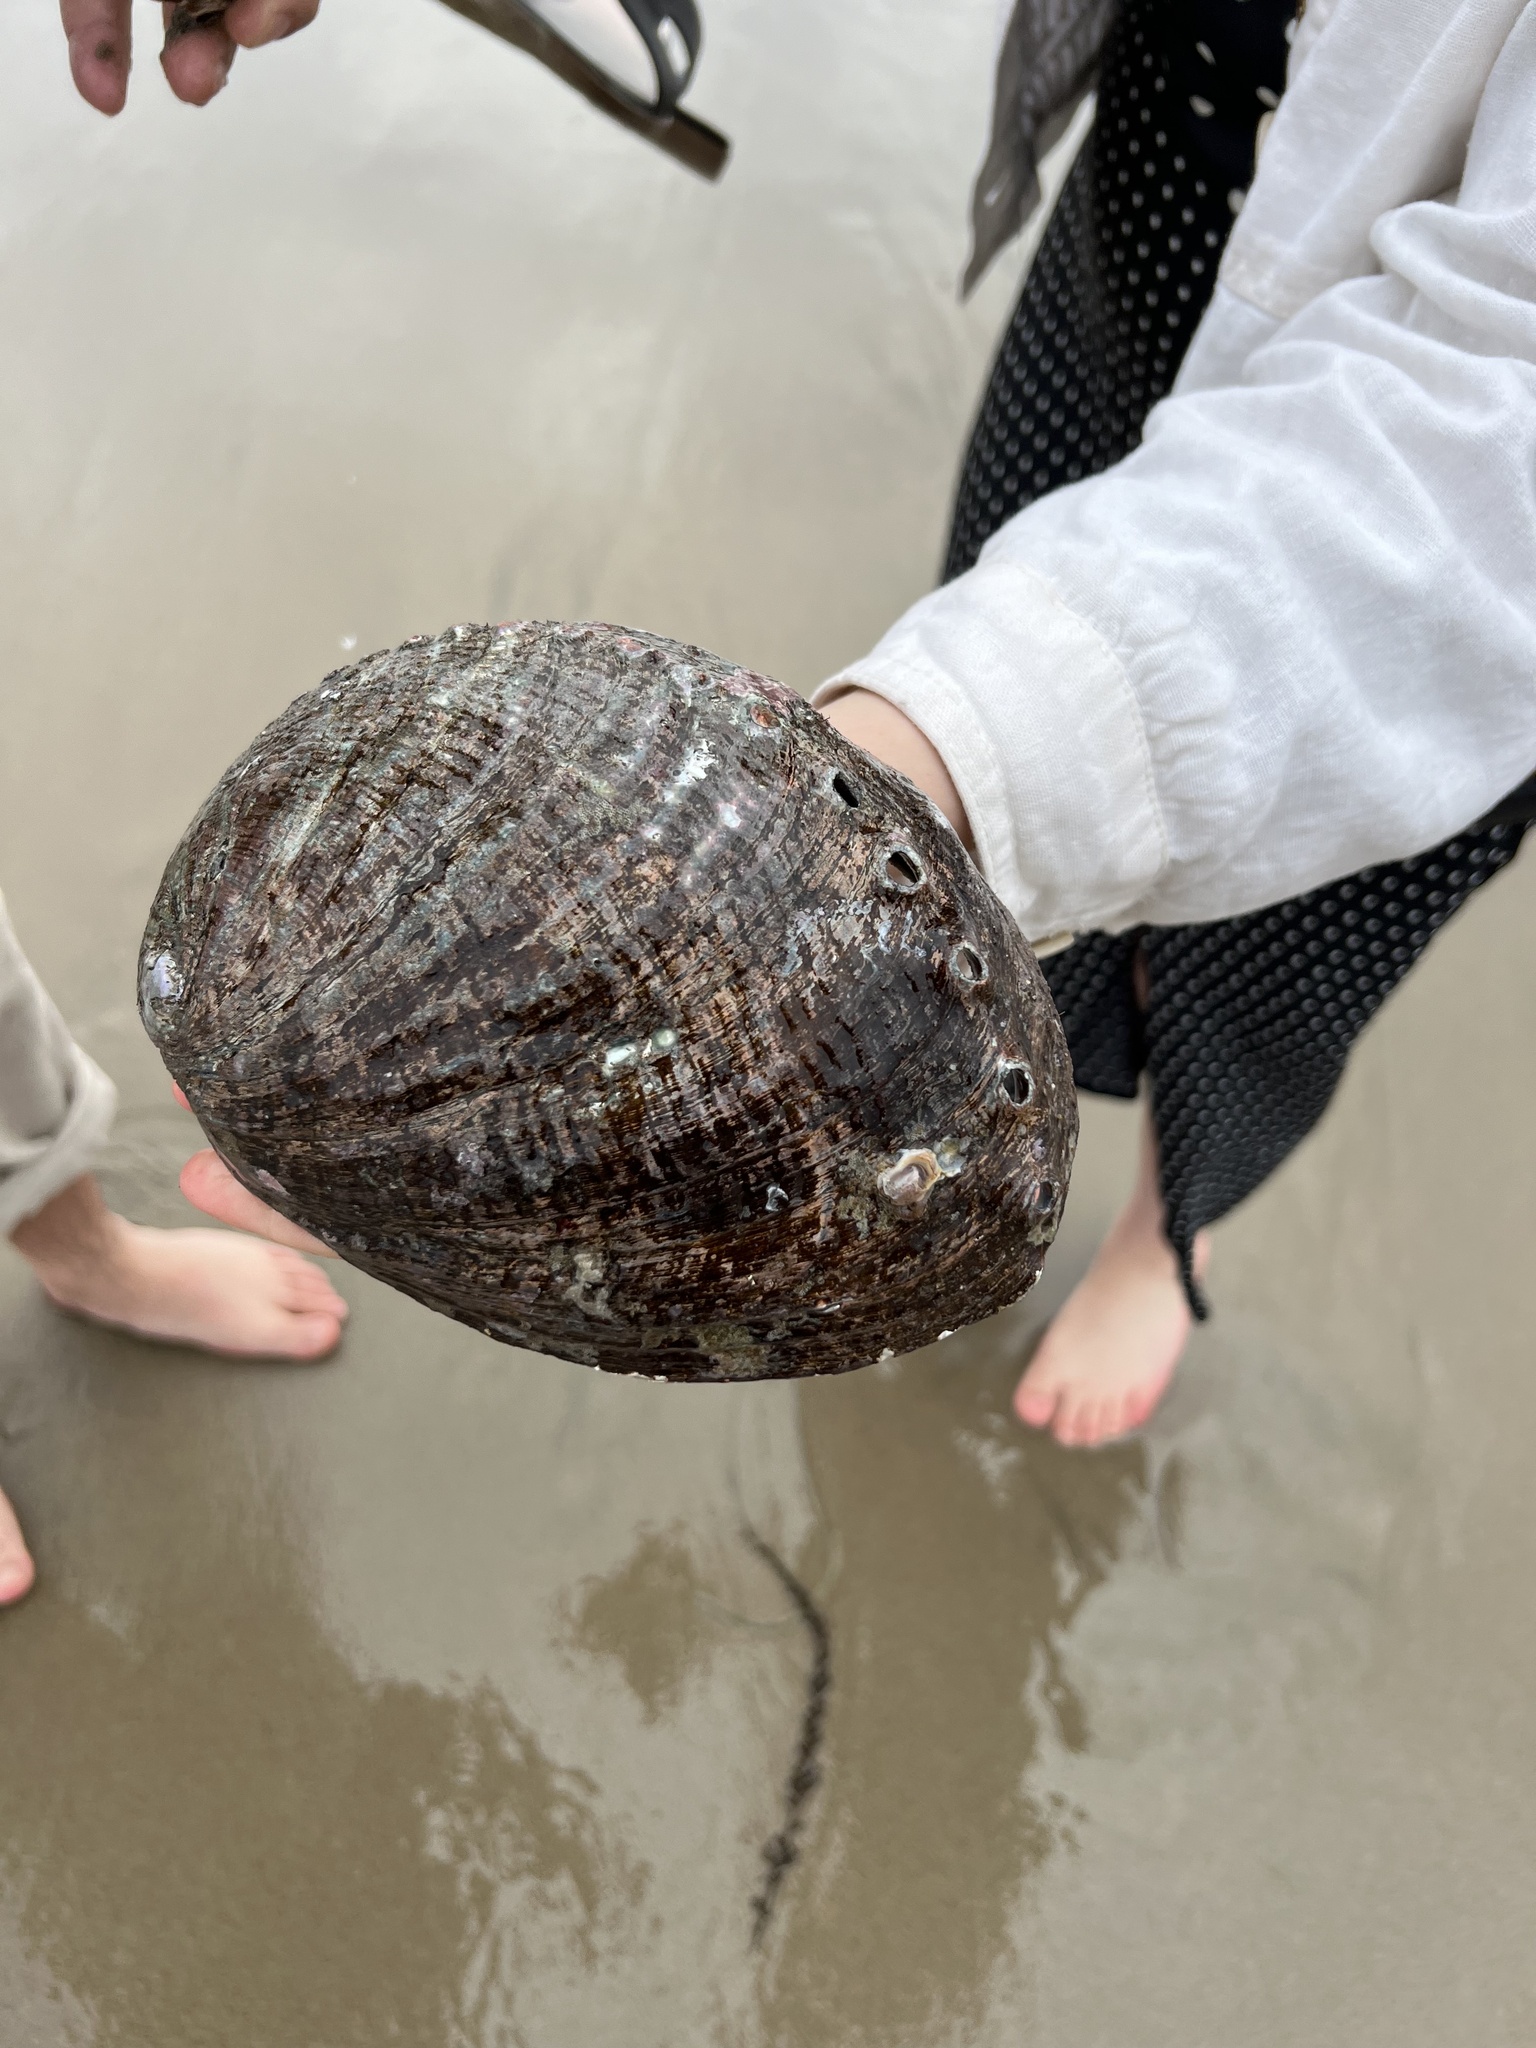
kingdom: Animalia
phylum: Mollusca
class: Gastropoda
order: Lepetellida
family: Haliotidae
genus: Haliotis
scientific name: Haliotis fulgens
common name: Green abalone
